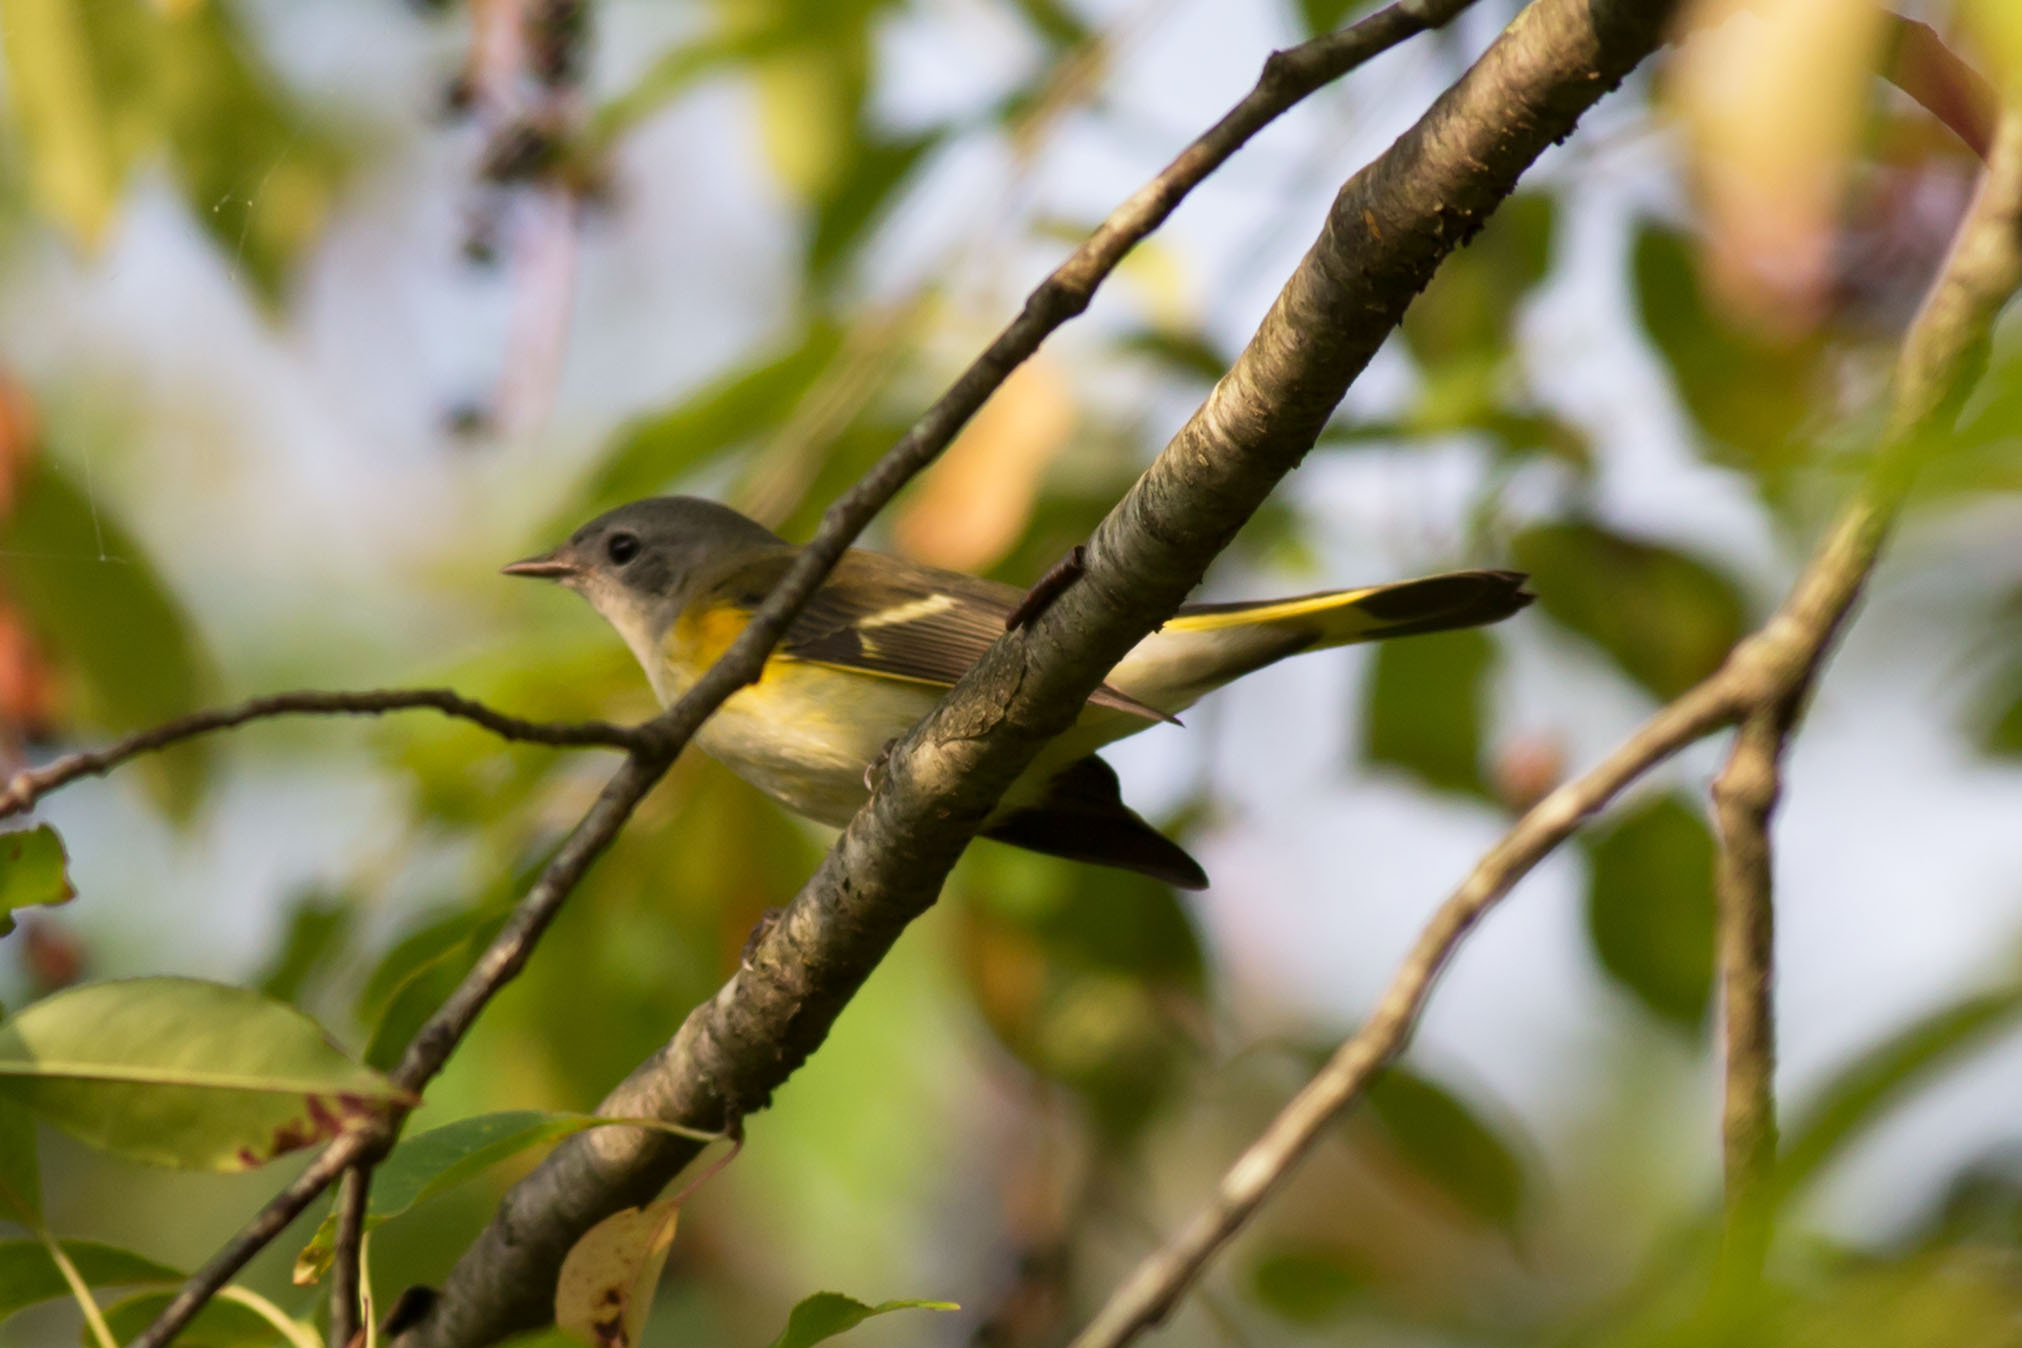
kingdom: Animalia
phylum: Chordata
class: Aves
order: Passeriformes
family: Parulidae
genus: Setophaga
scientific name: Setophaga ruticilla
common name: American redstart
